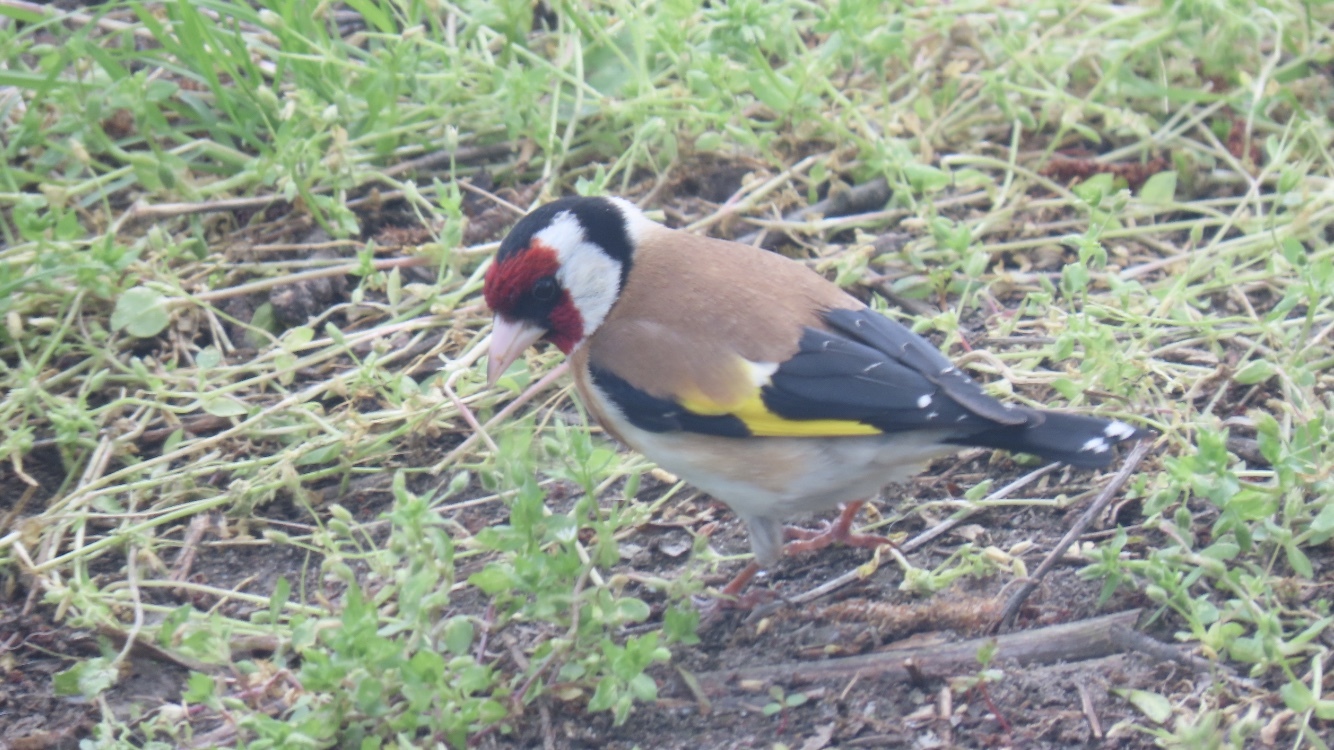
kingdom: Animalia
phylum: Chordata
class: Aves
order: Passeriformes
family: Fringillidae
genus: Carduelis
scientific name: Carduelis carduelis
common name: European goldfinch
